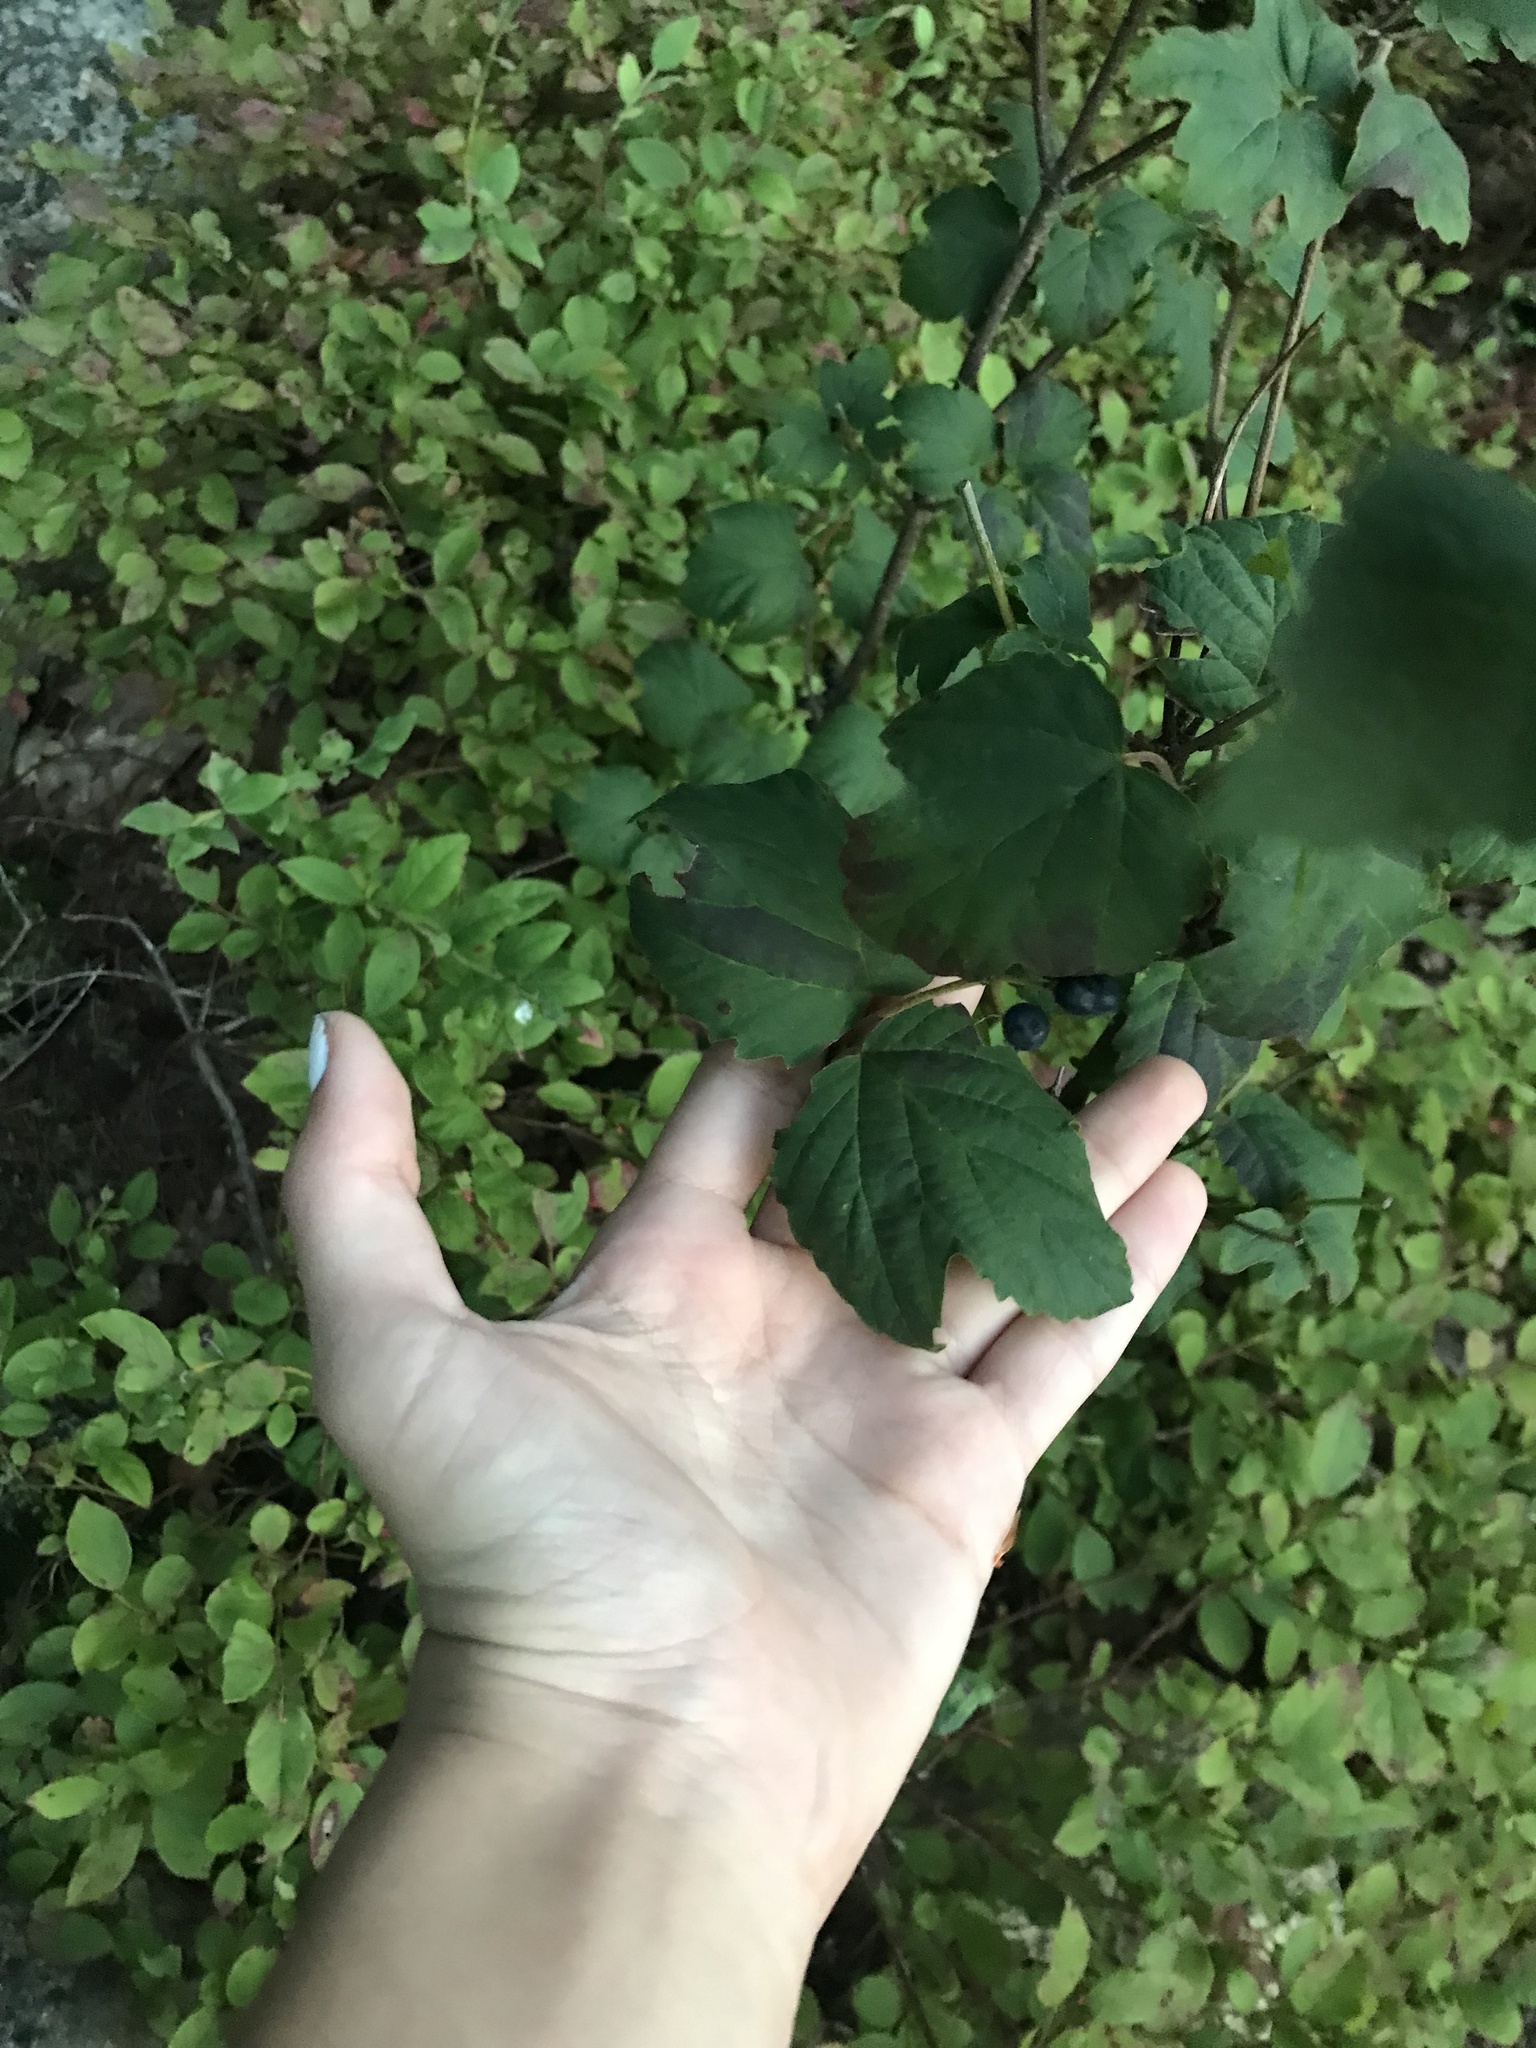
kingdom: Plantae
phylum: Tracheophyta
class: Magnoliopsida
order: Dipsacales
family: Viburnaceae
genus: Viburnum
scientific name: Viburnum acerifolium
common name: Dockmackie
